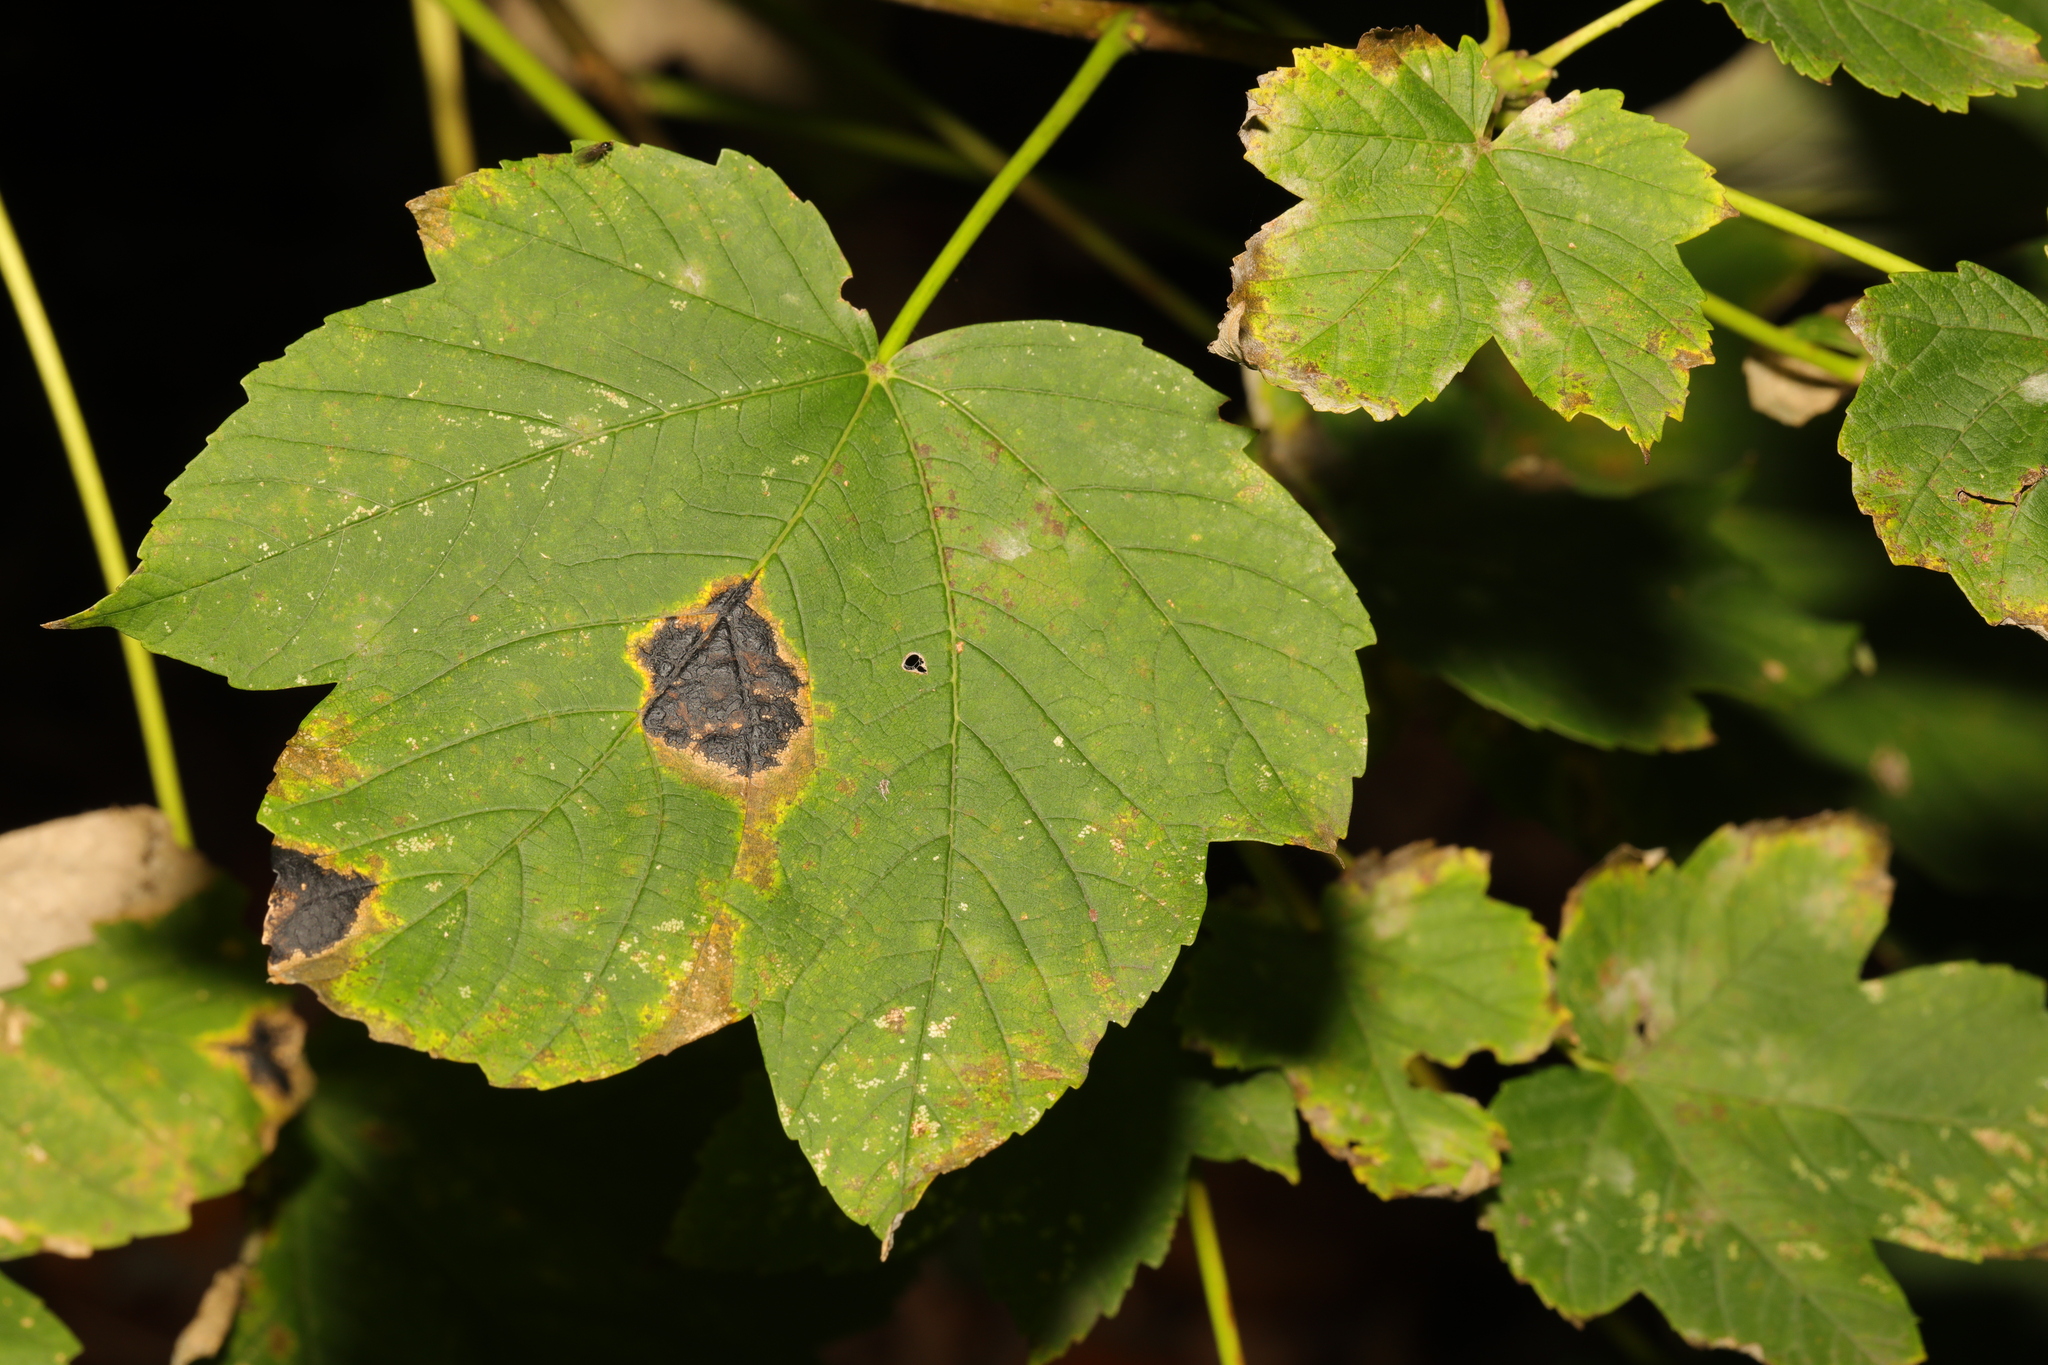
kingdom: Plantae
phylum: Tracheophyta
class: Magnoliopsida
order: Sapindales
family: Sapindaceae
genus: Acer
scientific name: Acer pseudoplatanus
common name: Sycamore
